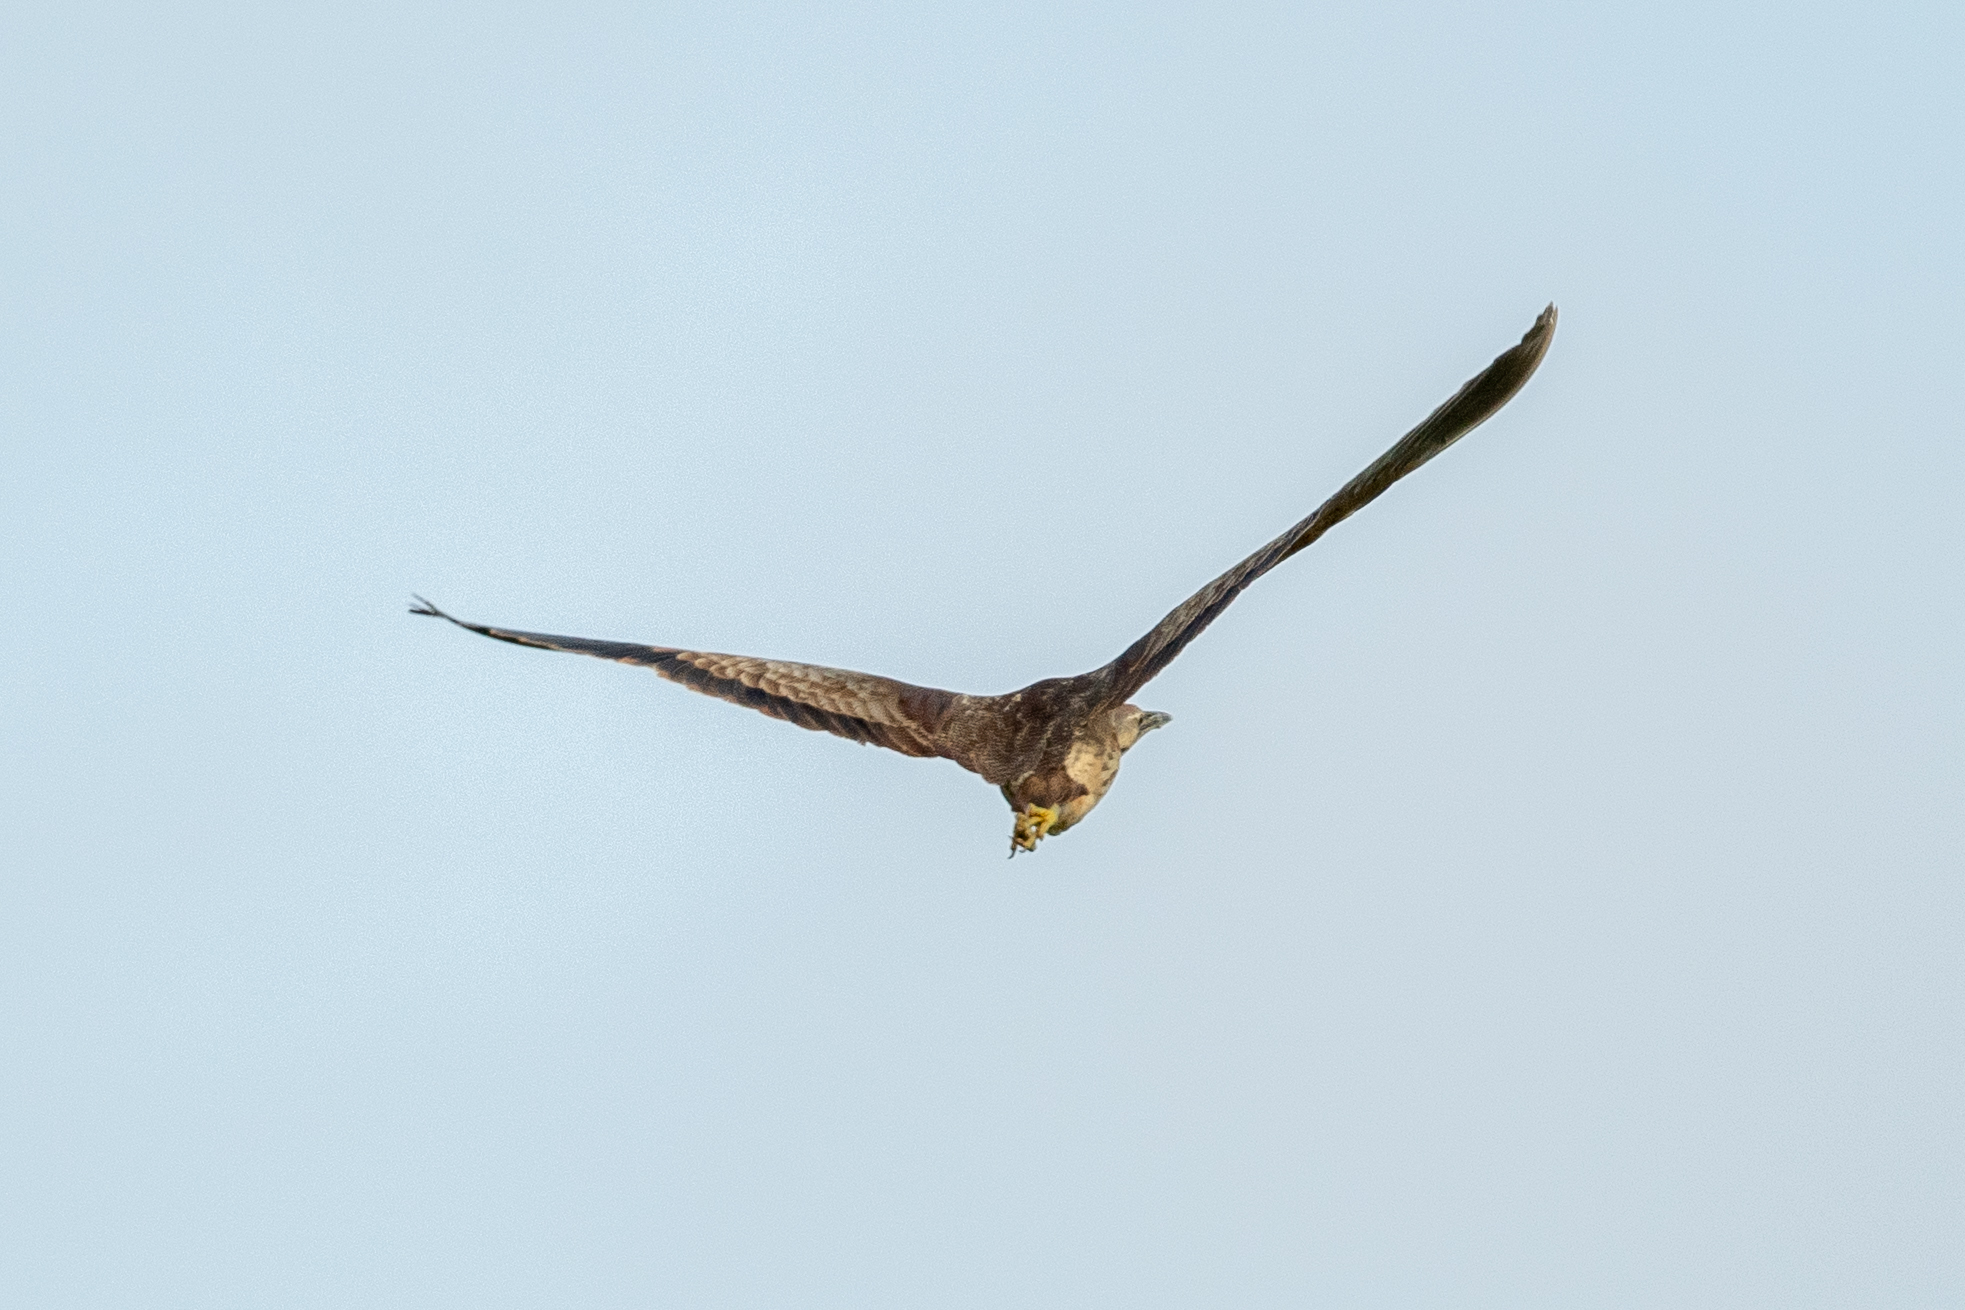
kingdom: Animalia
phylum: Chordata
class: Aves
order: Pelecaniformes
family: Ardeidae
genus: Botaurus
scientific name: Botaurus lentiginosus
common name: American bittern
